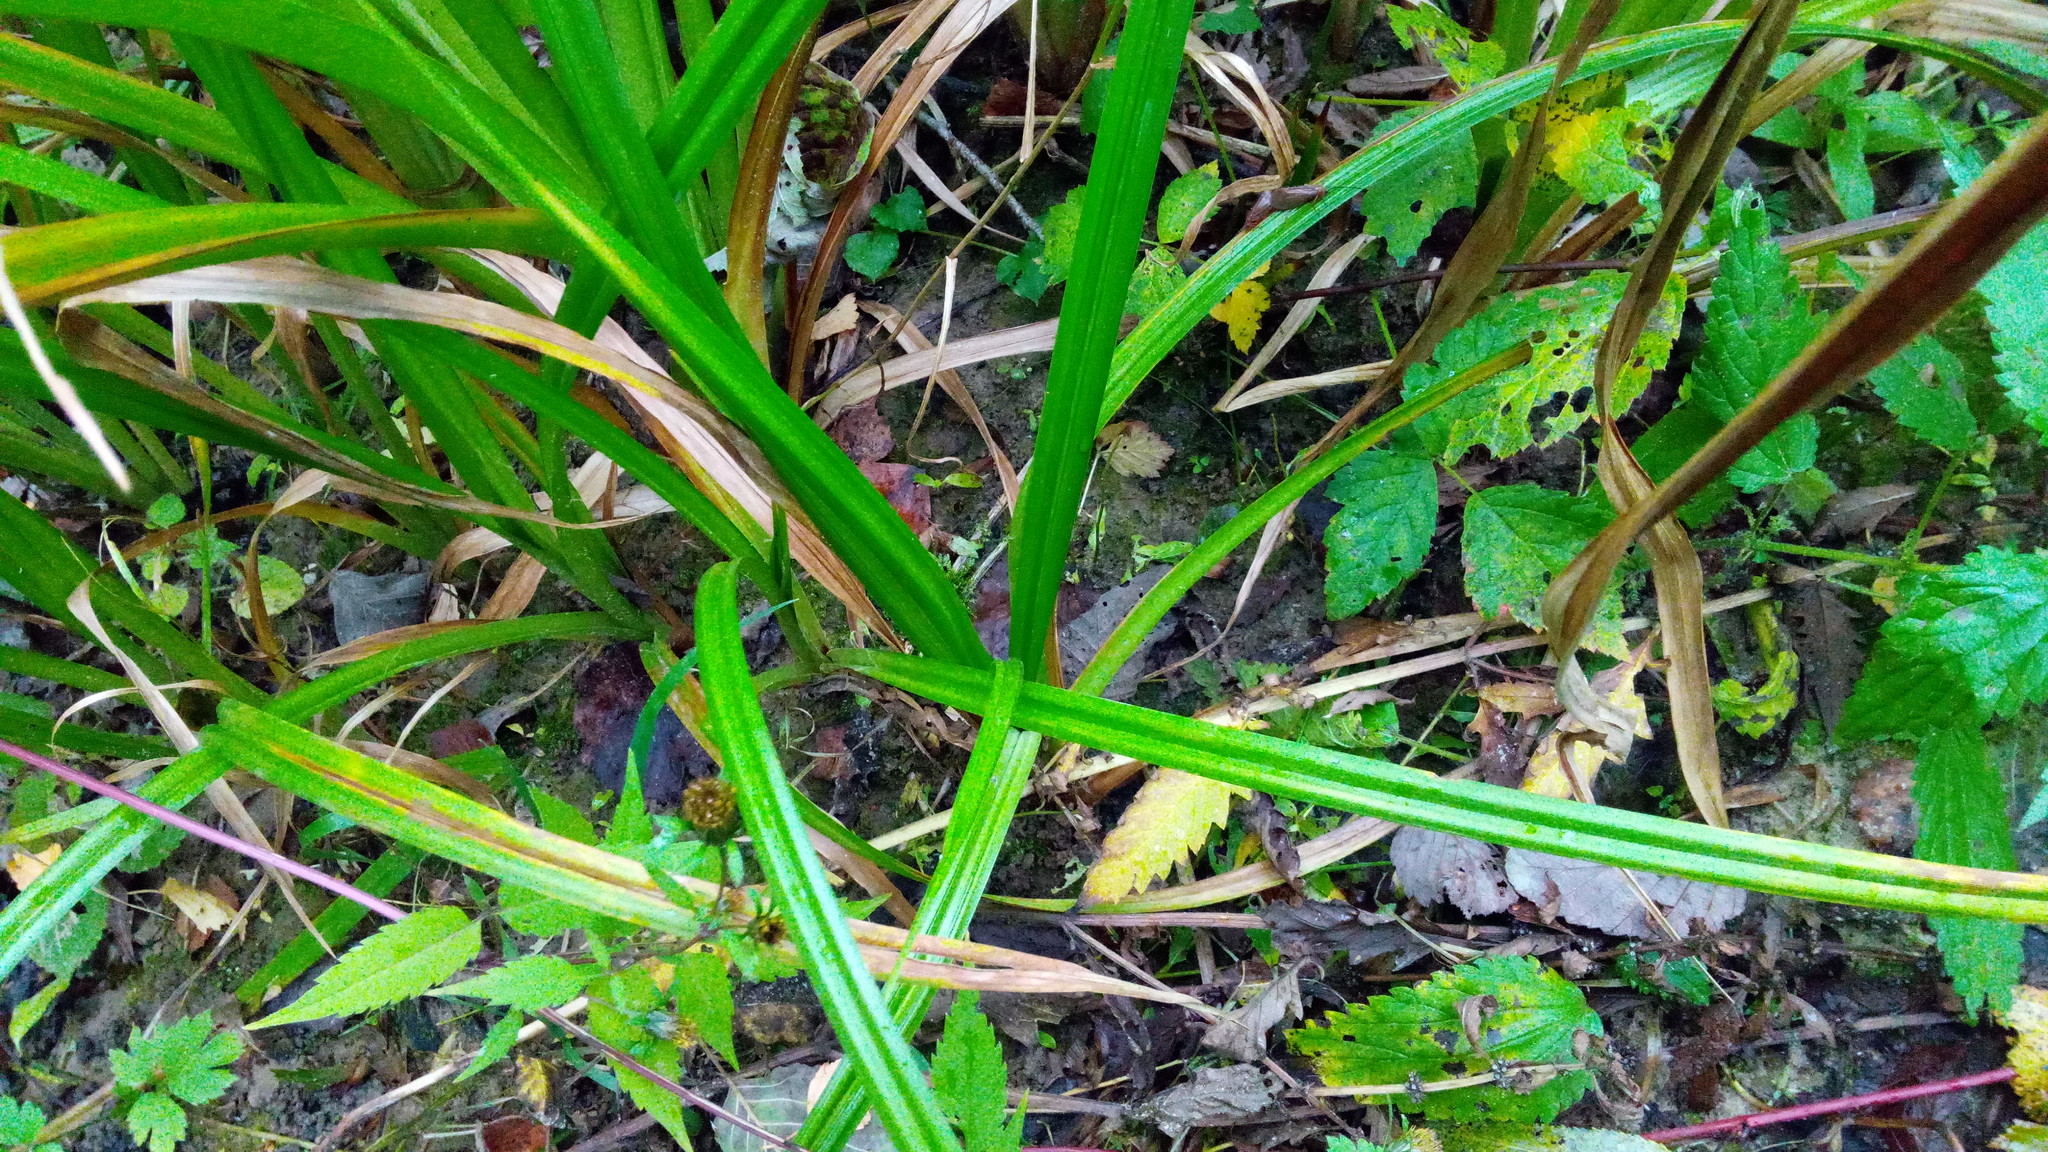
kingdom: Plantae
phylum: Tracheophyta
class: Liliopsida
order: Poales
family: Cyperaceae
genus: Scirpus
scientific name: Scirpus sylvaticus
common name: Wood club-rush
